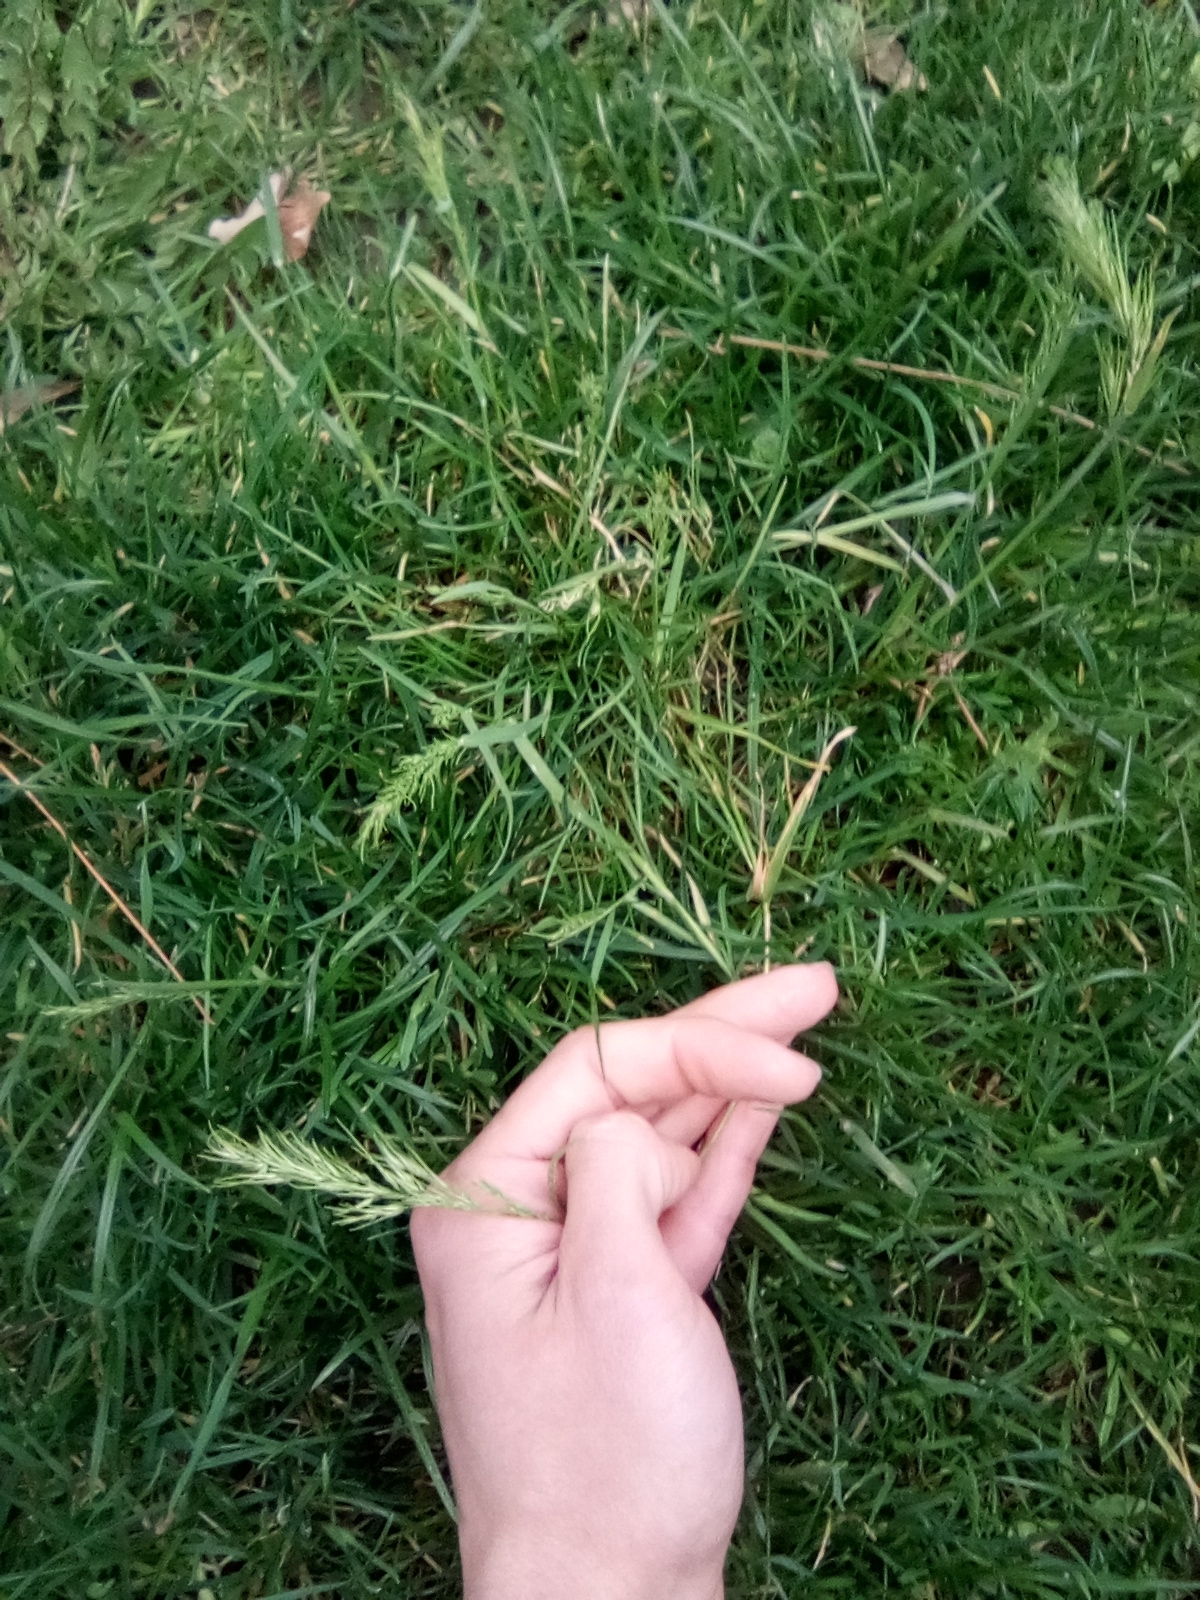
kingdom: Plantae
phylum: Tracheophyta
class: Liliopsida
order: Poales
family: Poaceae
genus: Poa
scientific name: Poa bulbosa
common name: Bulbous bluegrass
